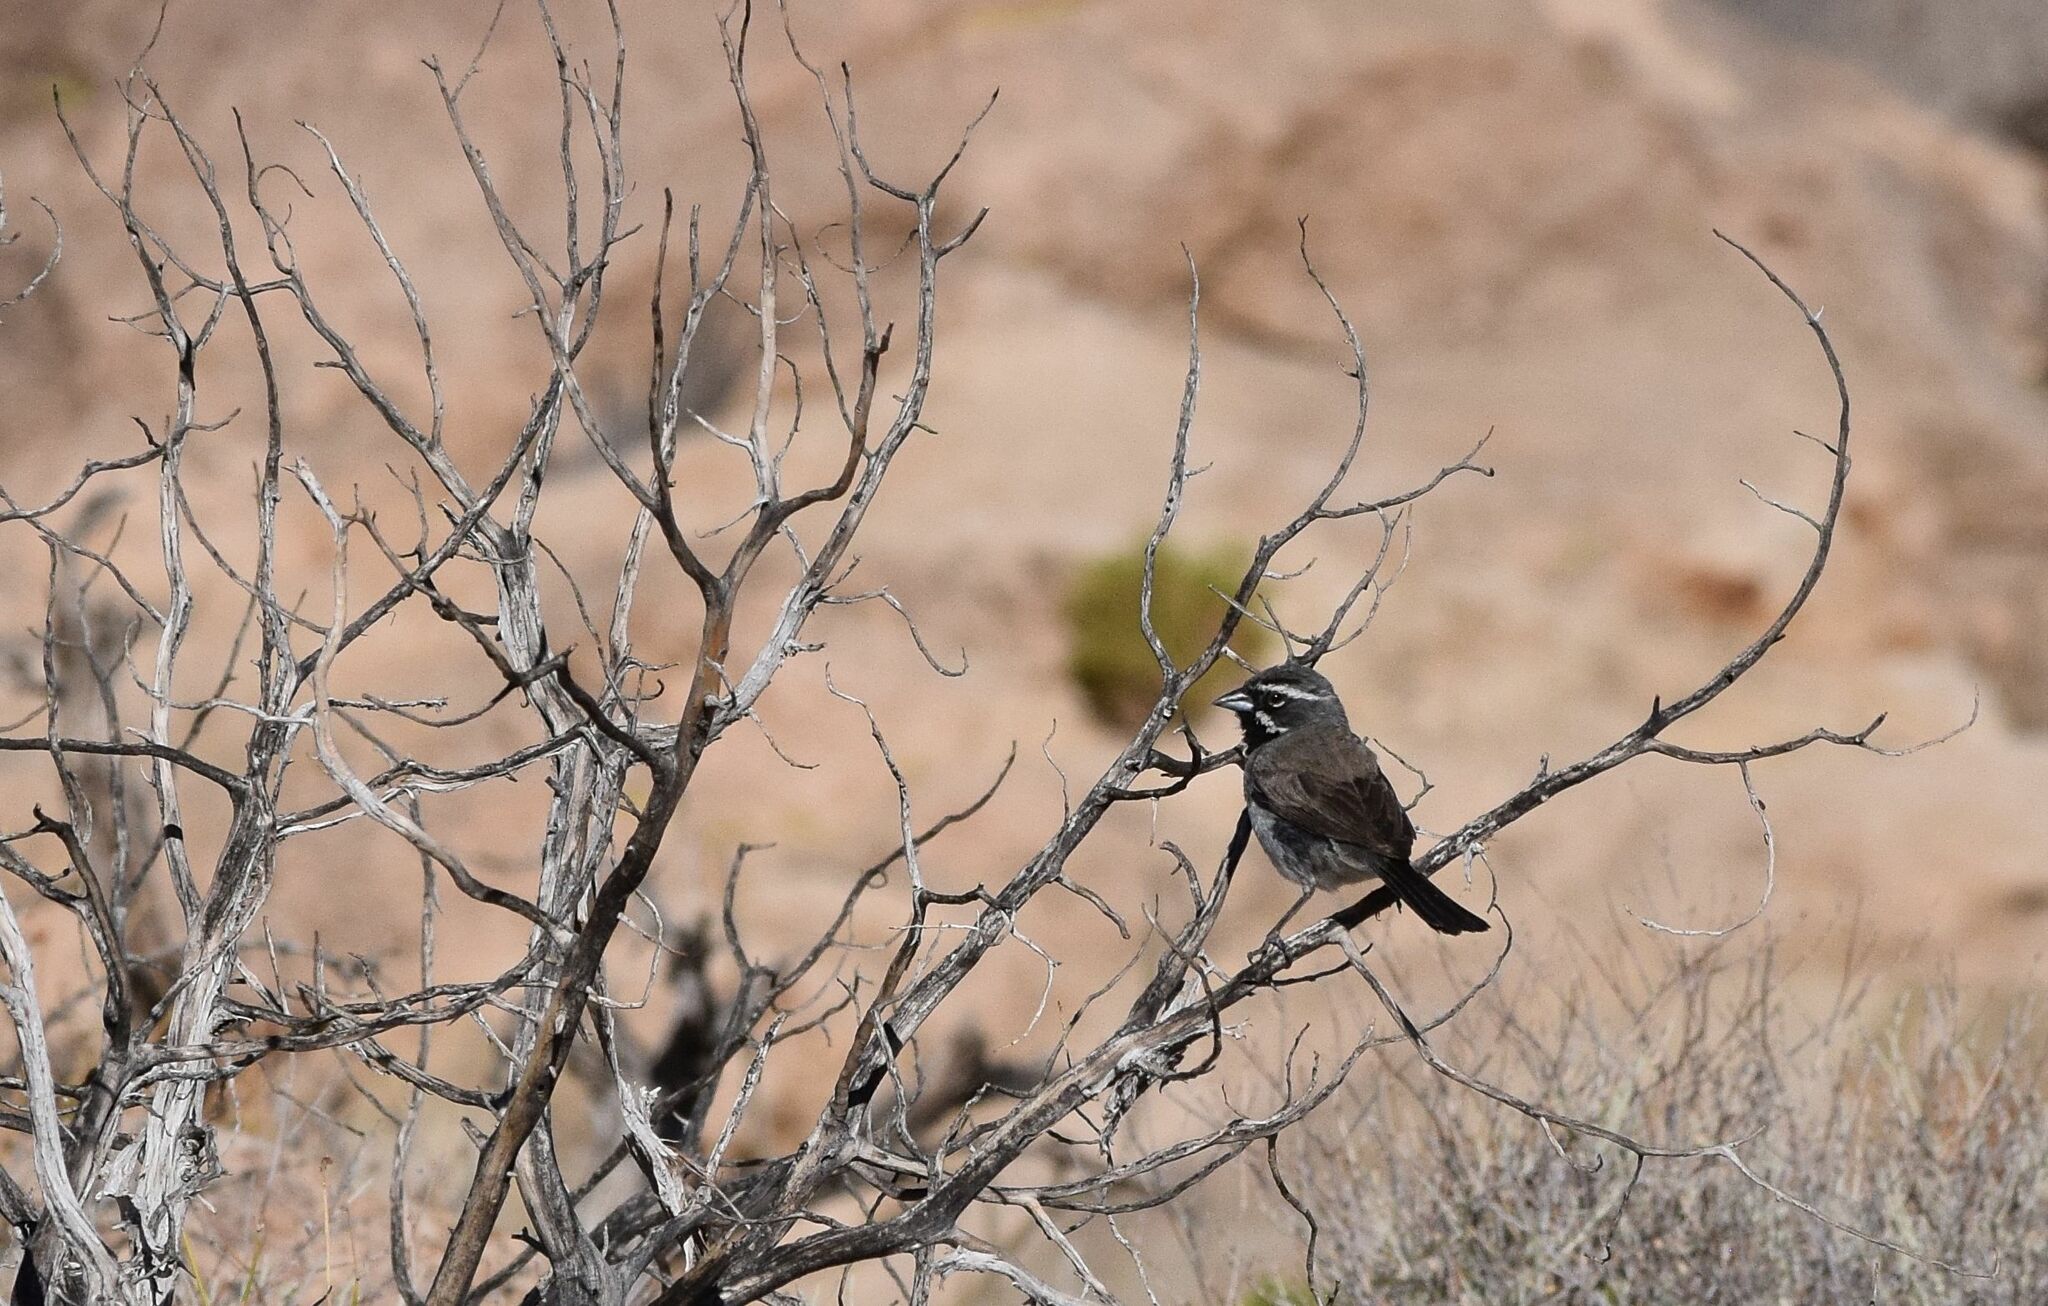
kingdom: Animalia
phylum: Chordata
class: Aves
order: Passeriformes
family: Passerellidae
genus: Amphispiza
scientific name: Amphispiza bilineata
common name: Black-throated sparrow
